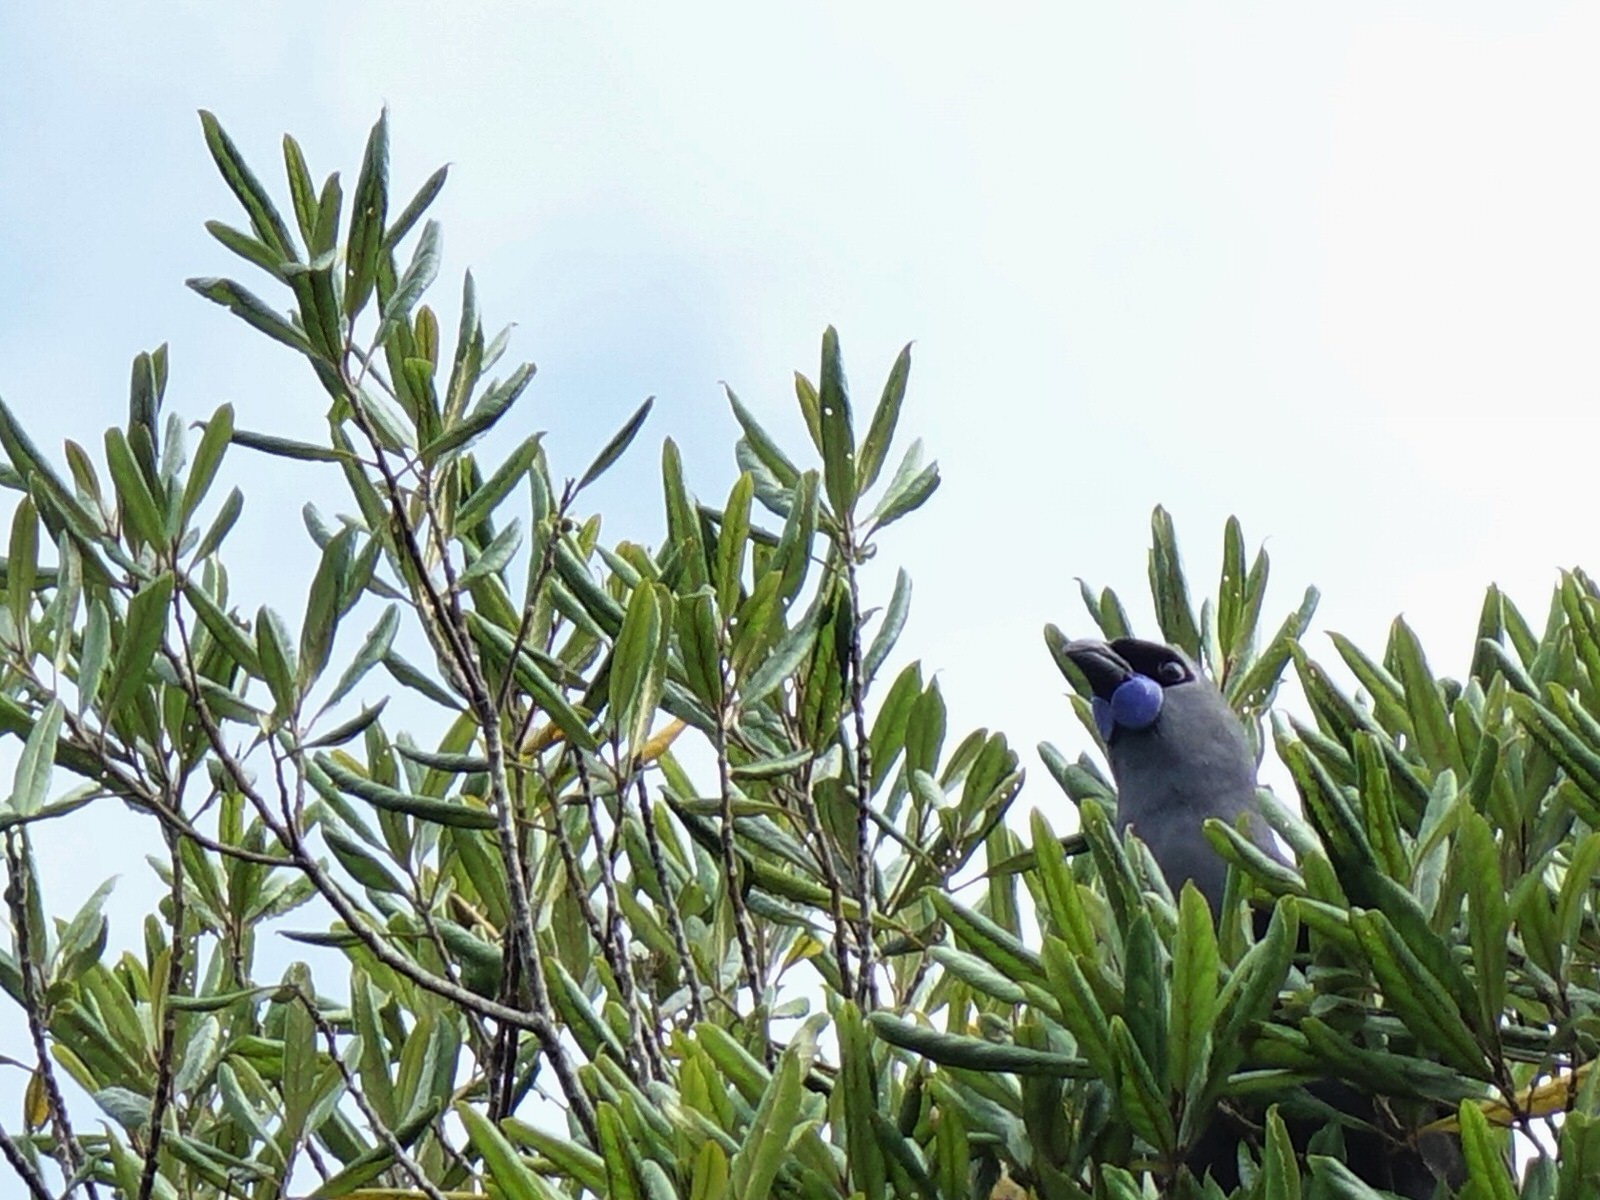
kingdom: Animalia
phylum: Chordata
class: Aves
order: Passeriformes
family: Callaeatidae
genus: Callaeas
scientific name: Callaeas cinereus
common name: South island kokako
